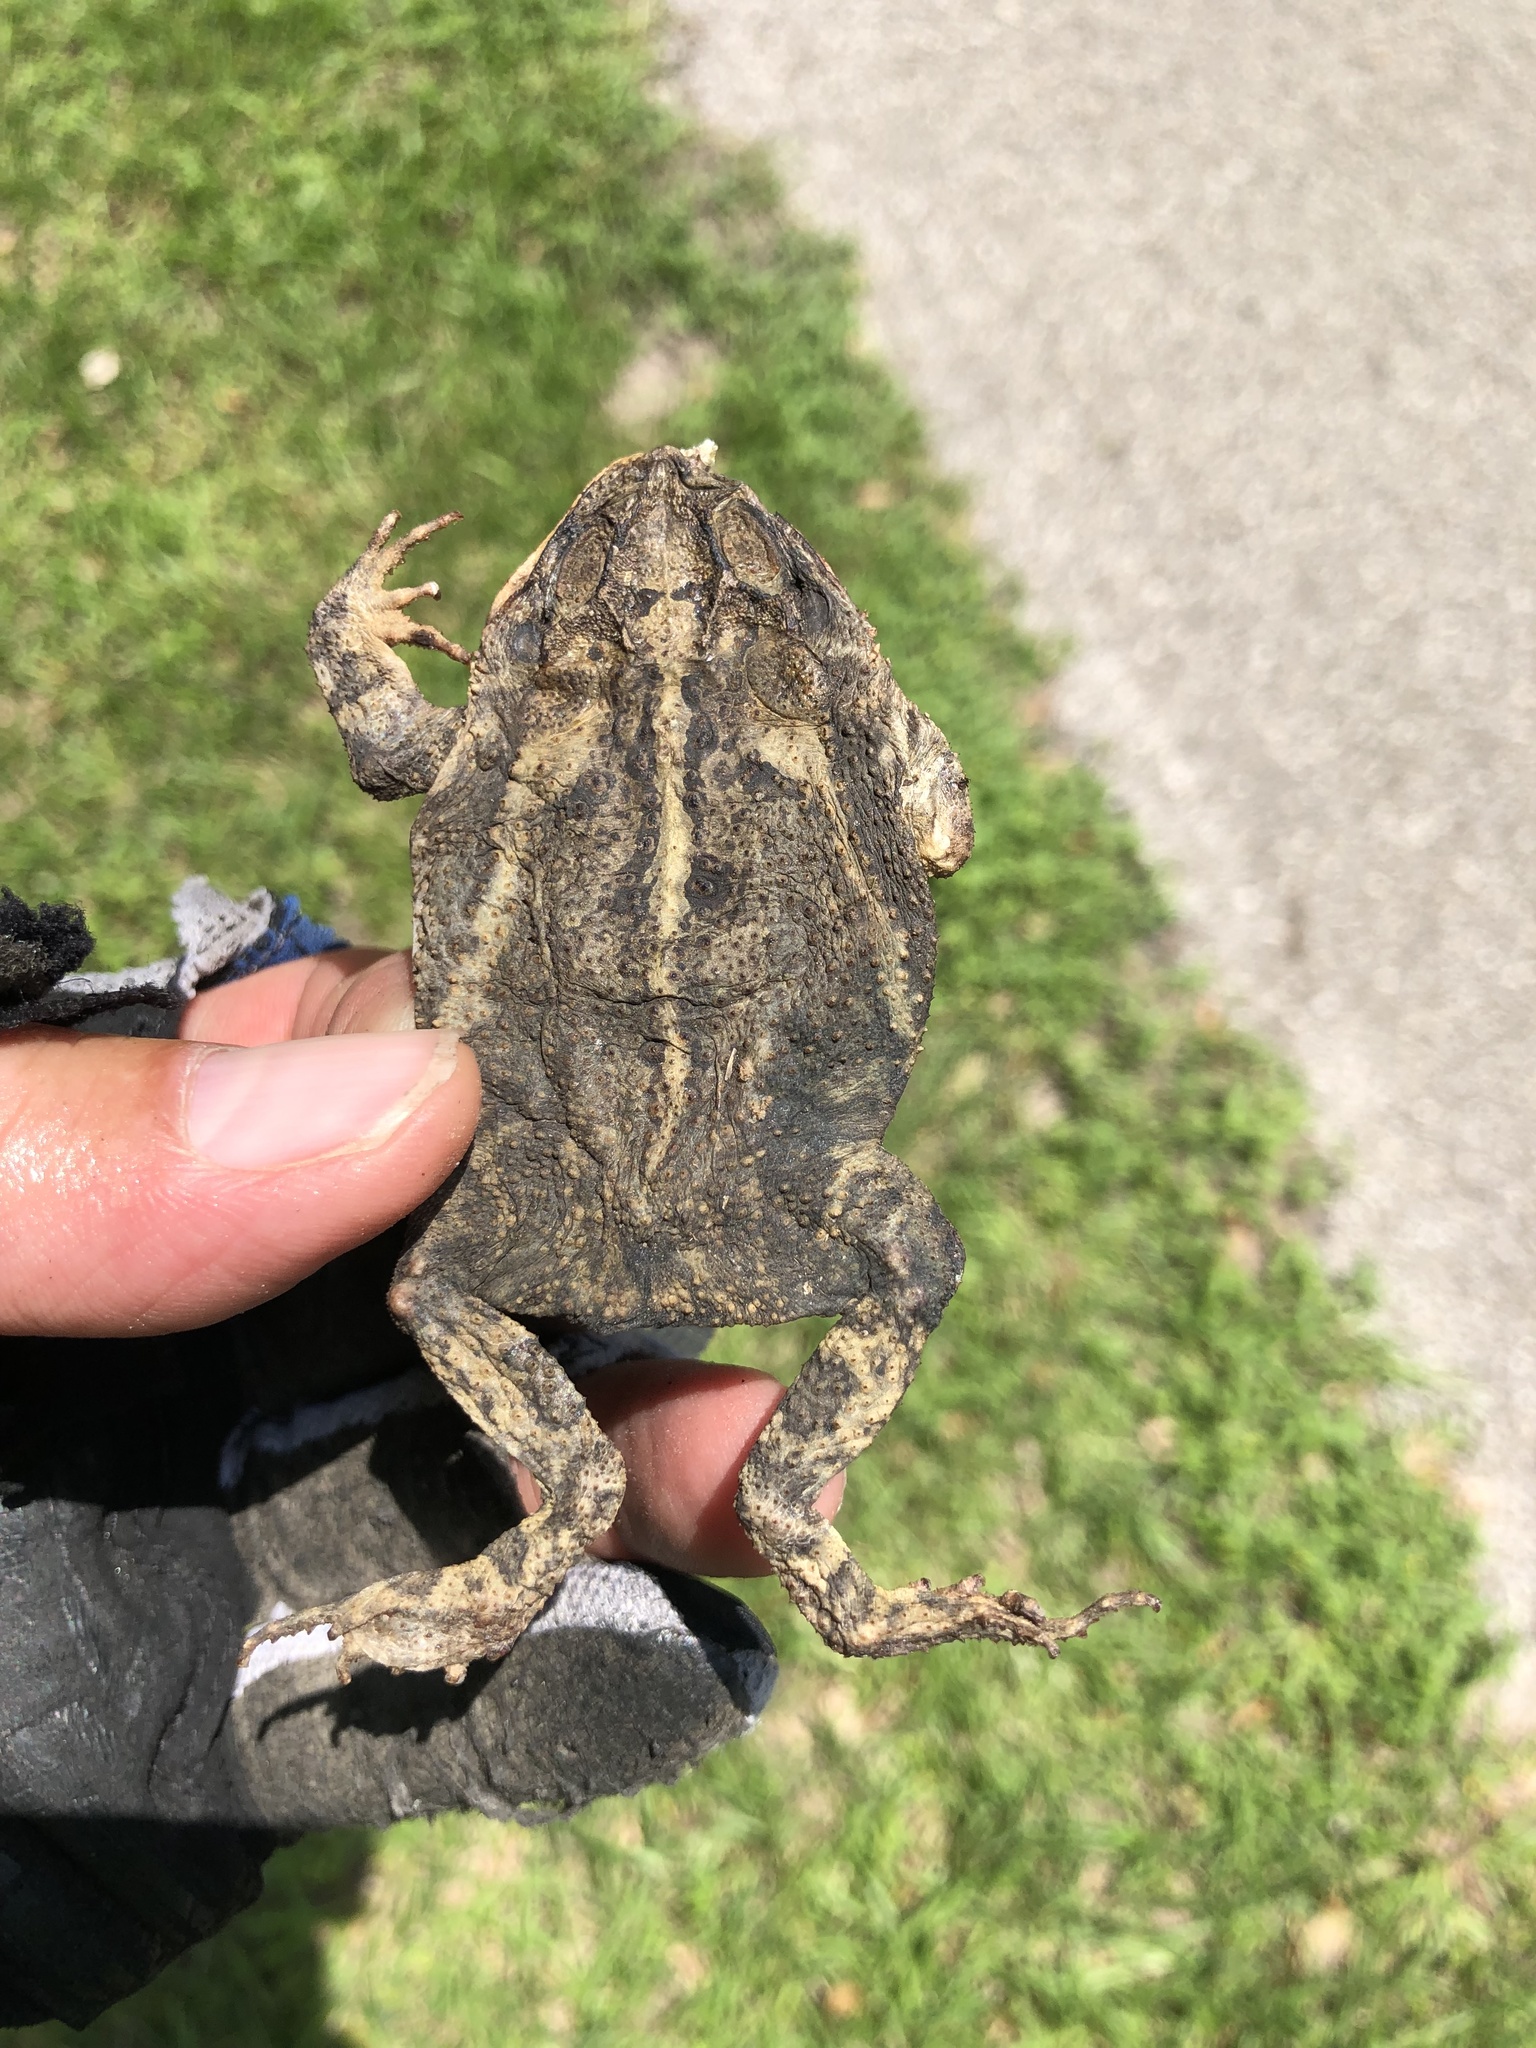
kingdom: Animalia
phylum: Chordata
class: Amphibia
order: Anura
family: Bufonidae
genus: Incilius
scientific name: Incilius nebulifer
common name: Gulf coast toad
